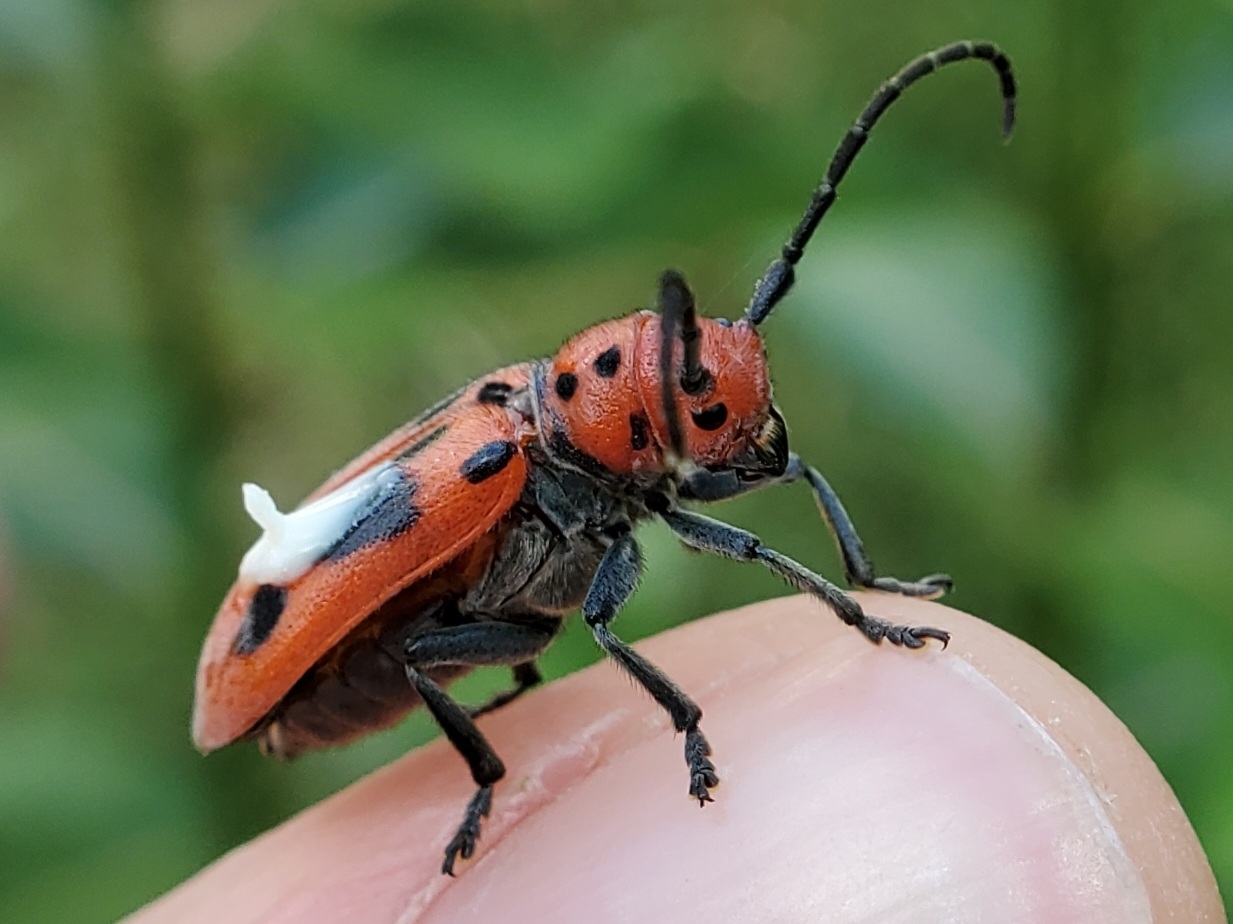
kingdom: Animalia
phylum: Arthropoda
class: Insecta
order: Coleoptera
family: Cerambycidae
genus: Tetraopes
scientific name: Tetraopes tetrophthalmus
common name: Red milkweed beetle
